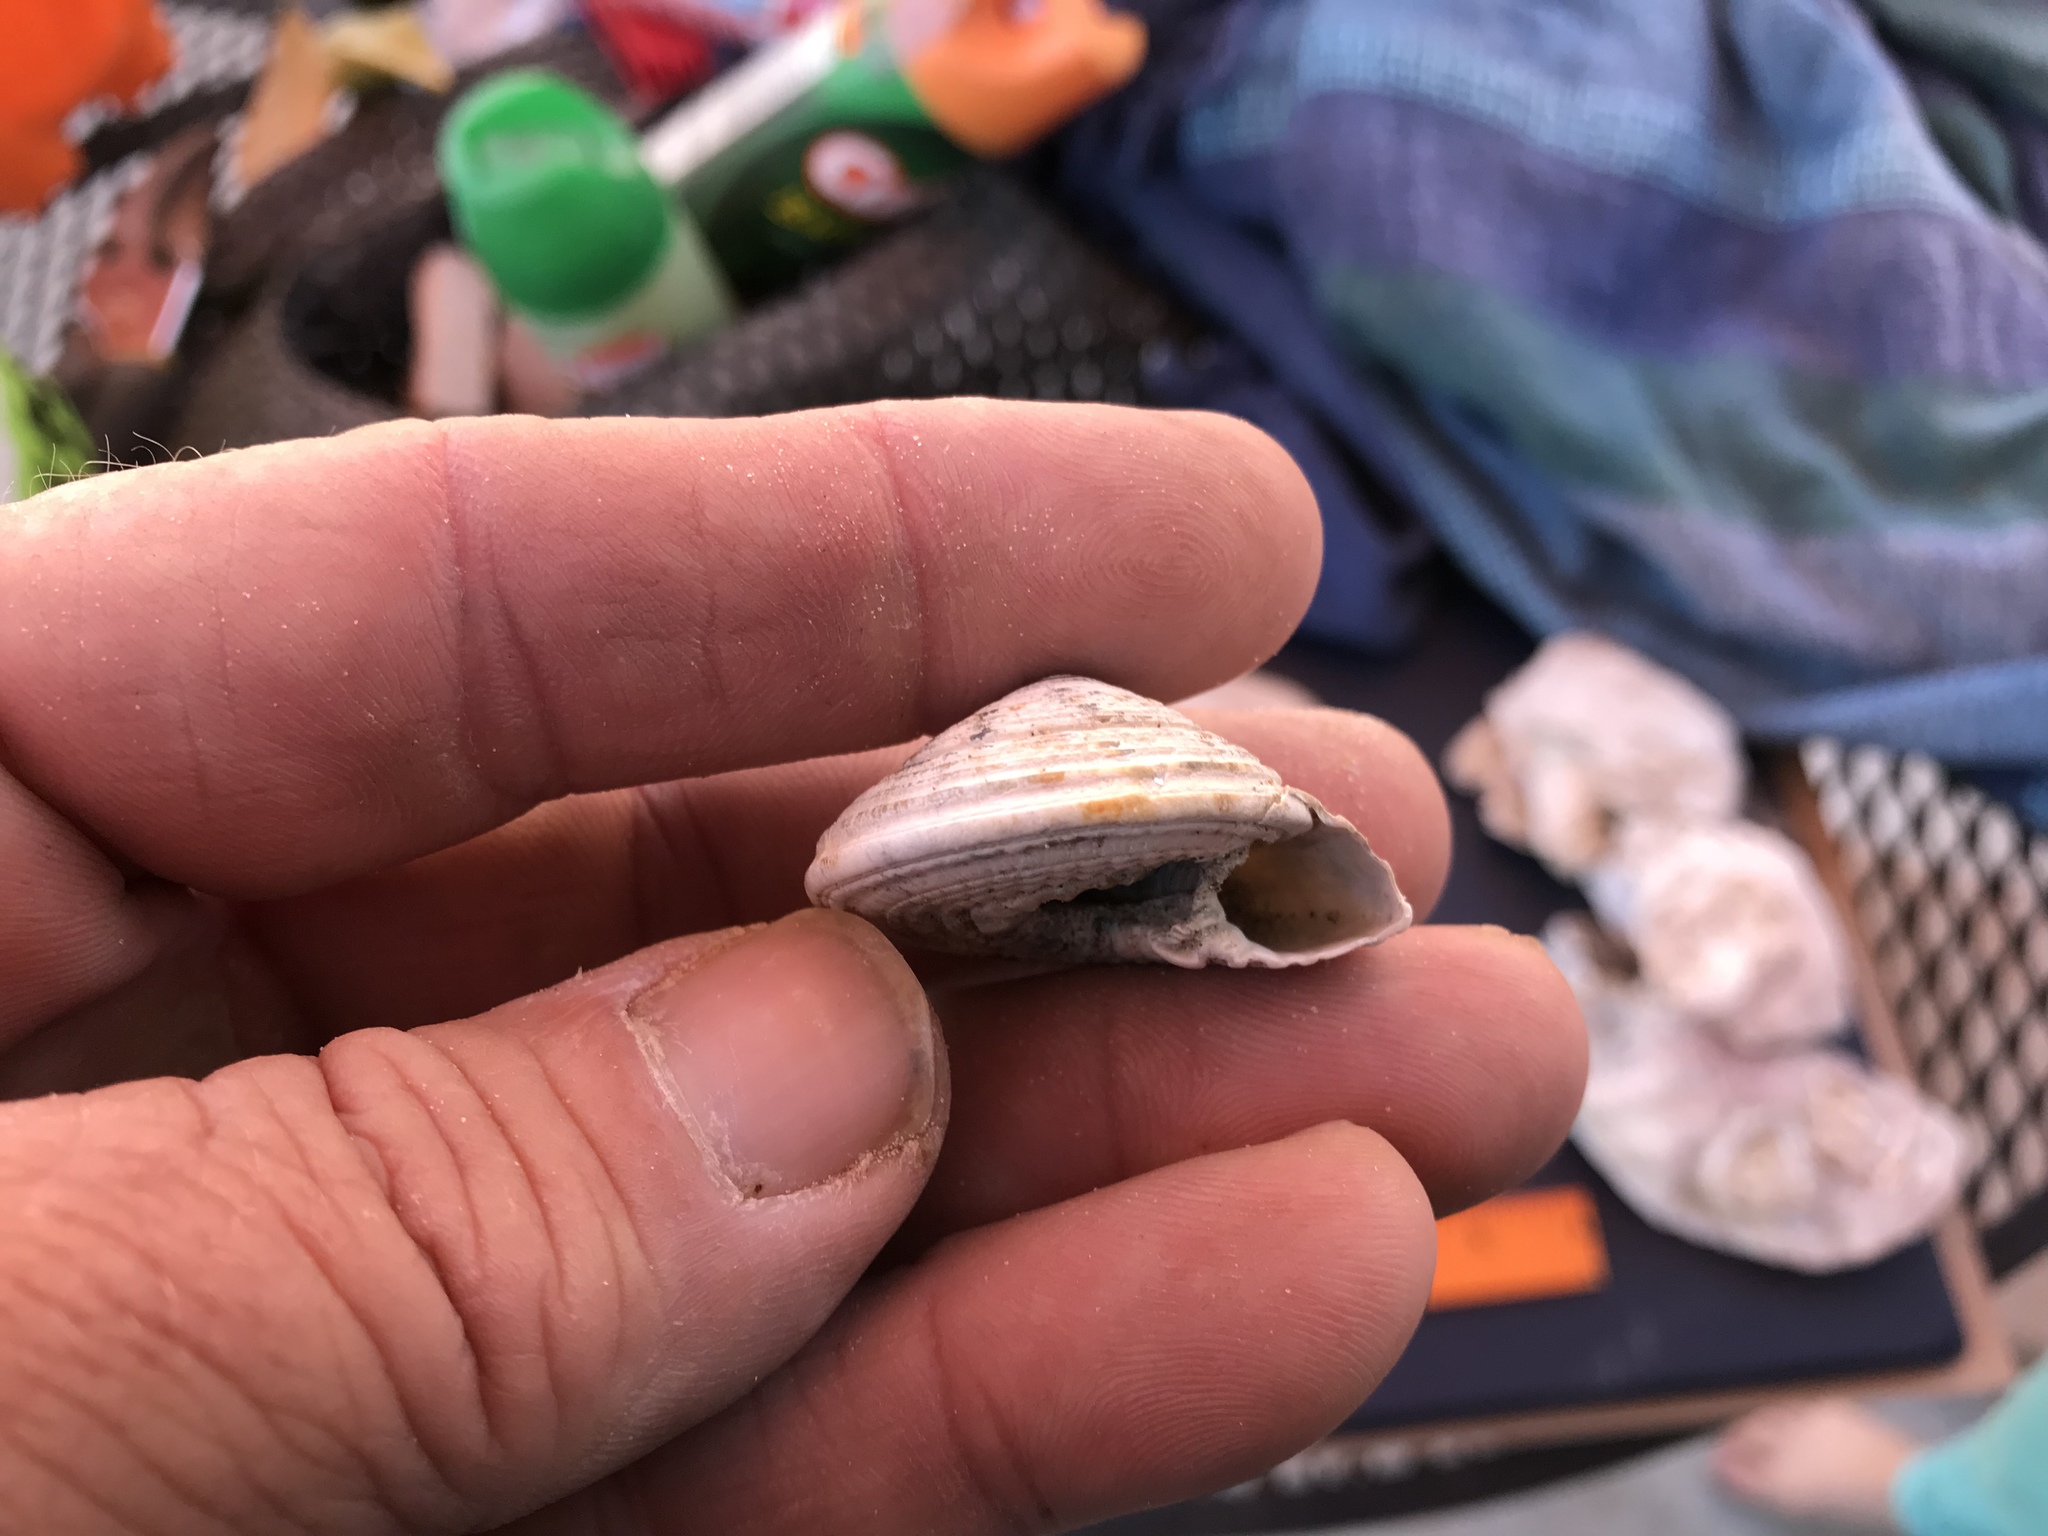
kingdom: Animalia
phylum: Mollusca
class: Gastropoda
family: Architectonicidae
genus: Architectonica
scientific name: Architectonica nobilis
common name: Common sundial
